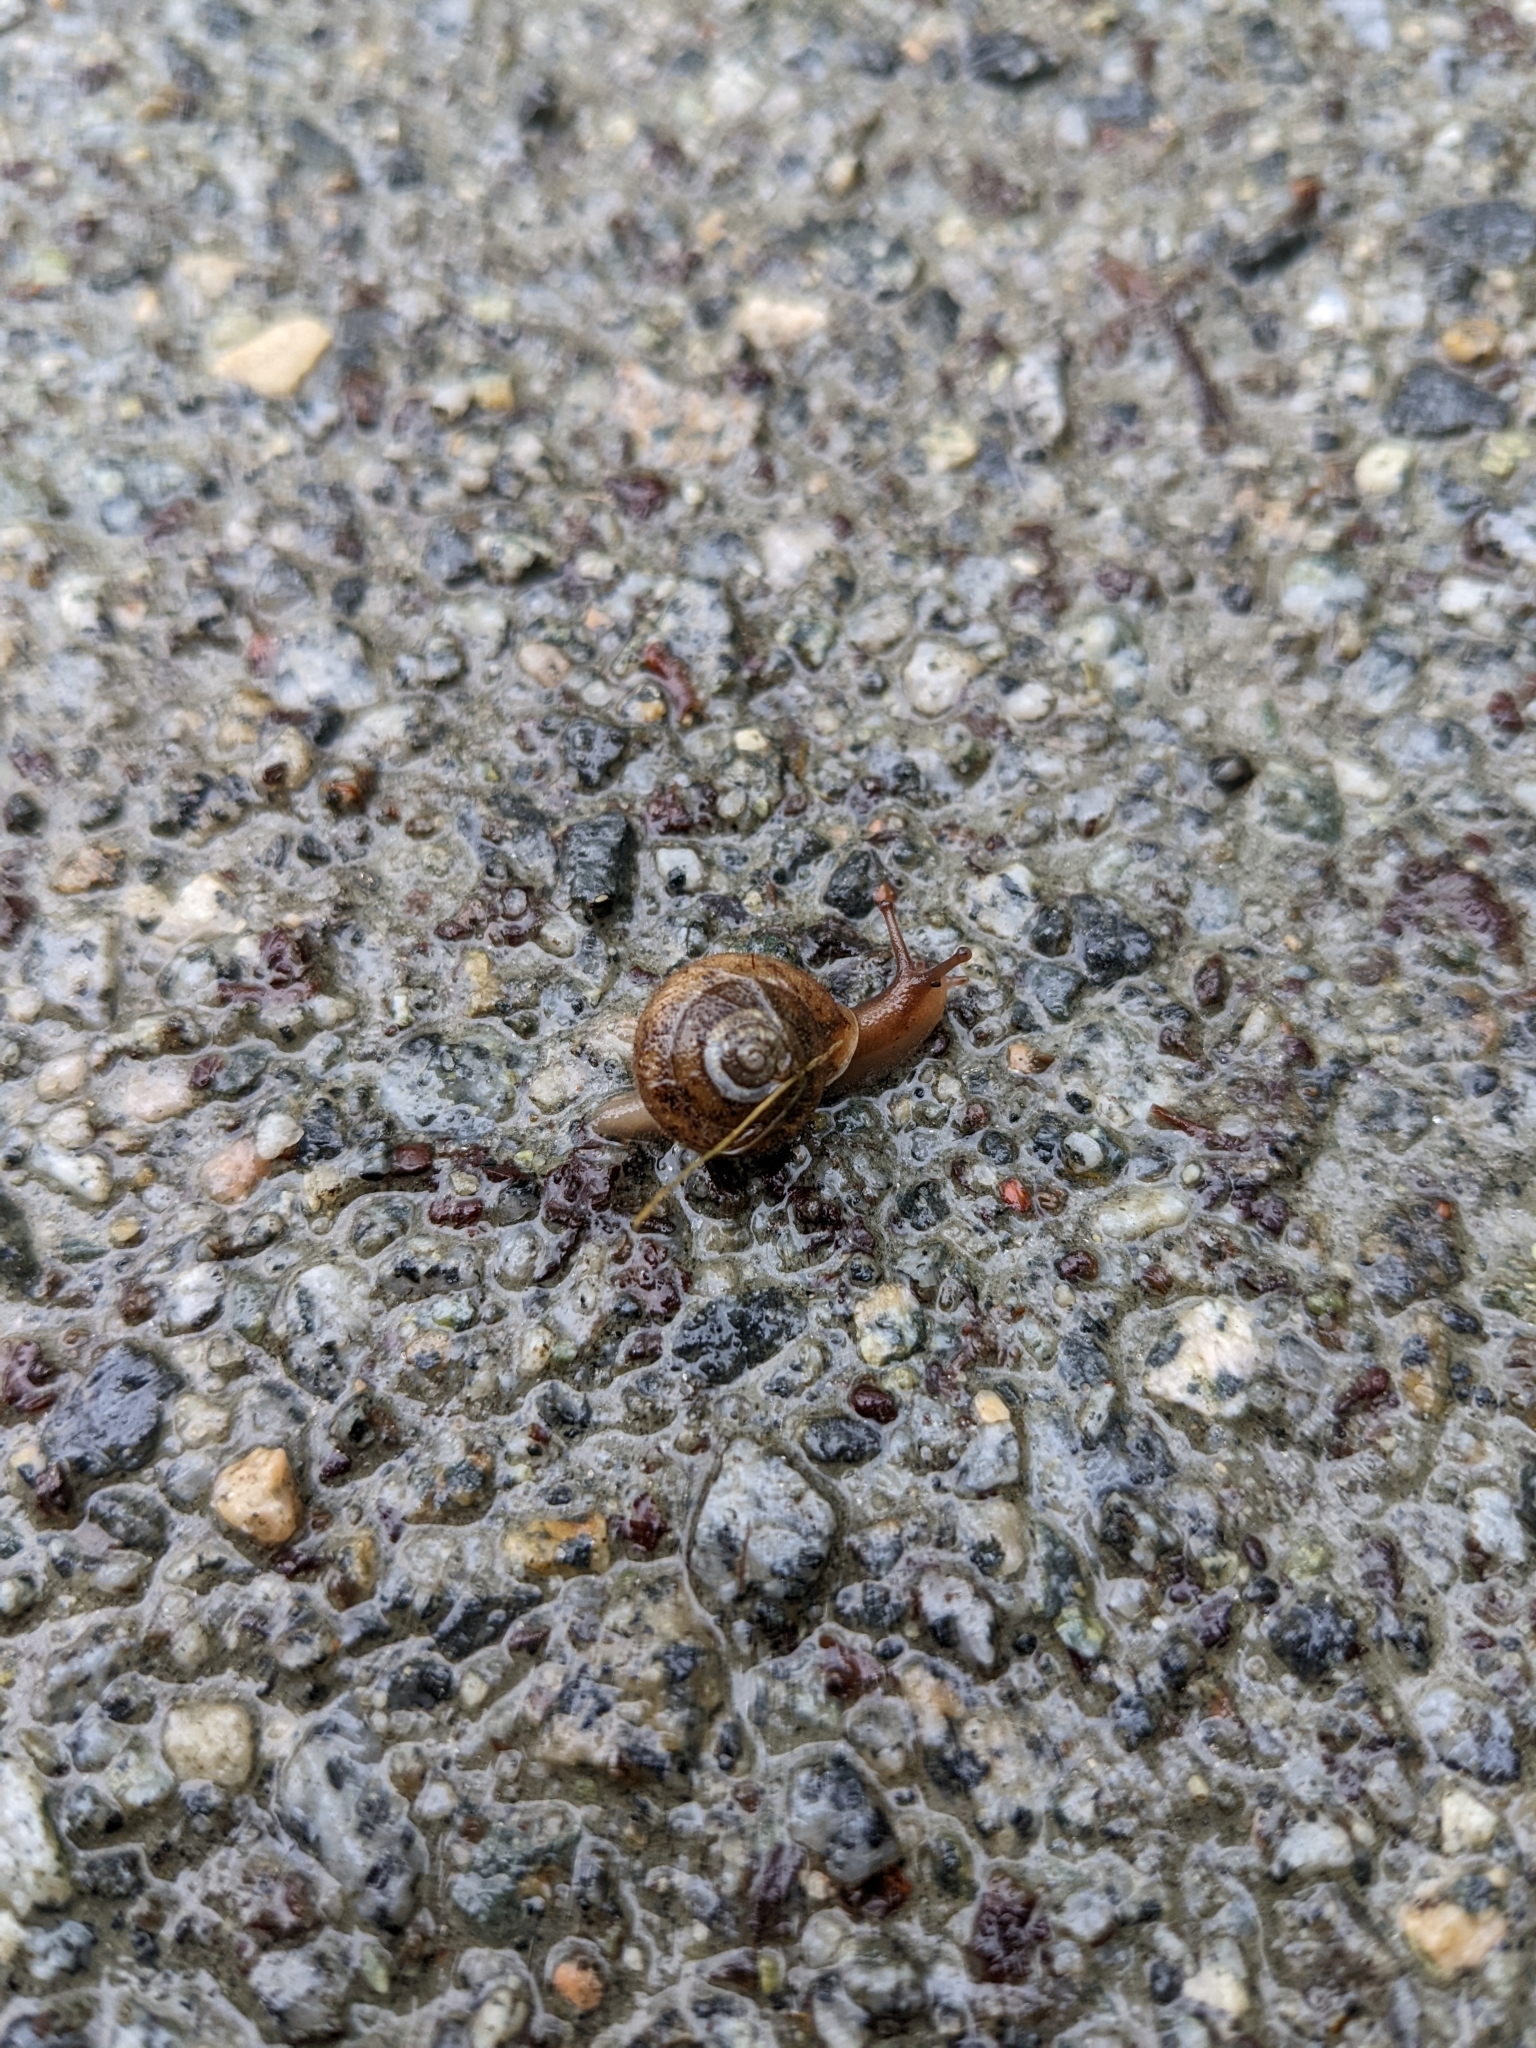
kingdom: Animalia
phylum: Mollusca
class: Gastropoda
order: Stylommatophora
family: Polygyridae
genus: Vespericola
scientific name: Vespericola columbianus
